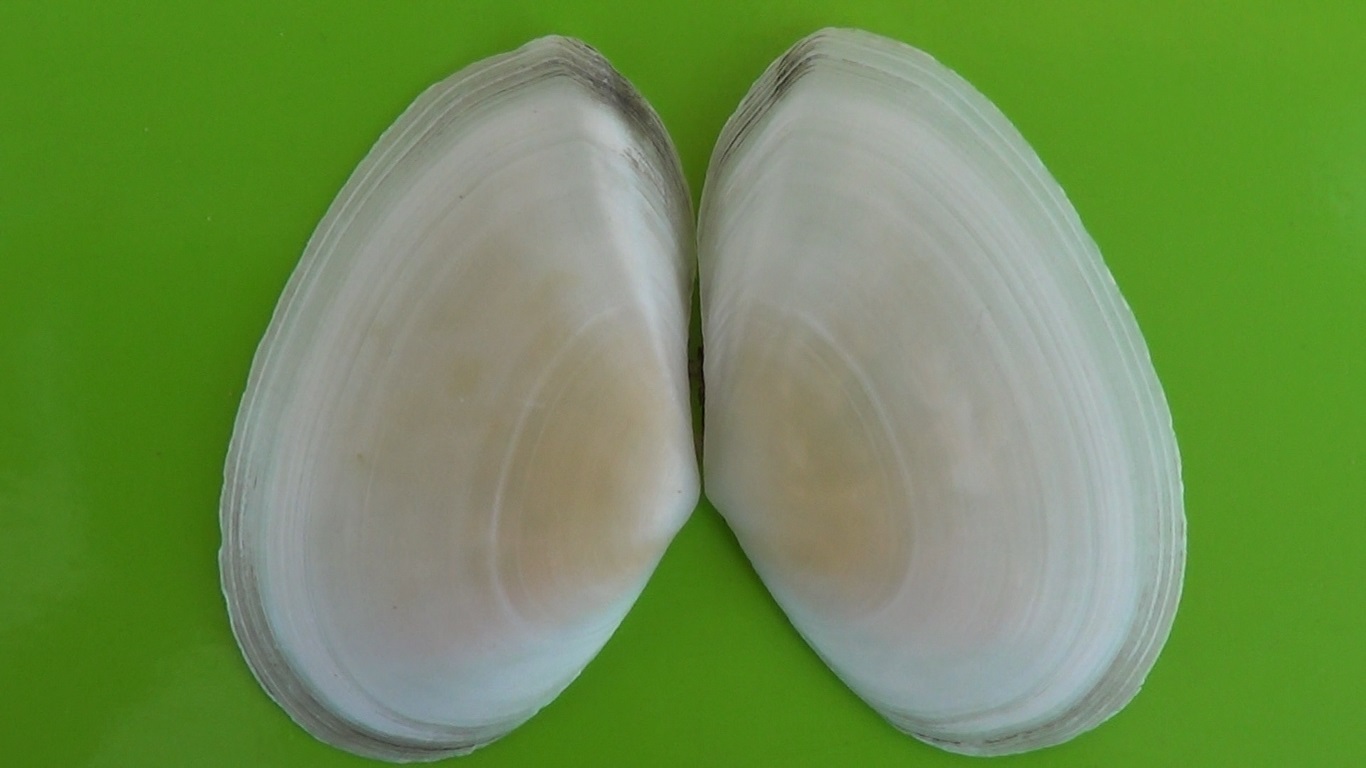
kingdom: Animalia
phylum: Mollusca
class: Bivalvia
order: Cardiida
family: Tellinidae
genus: Peronaea
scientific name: Peronaea planata
